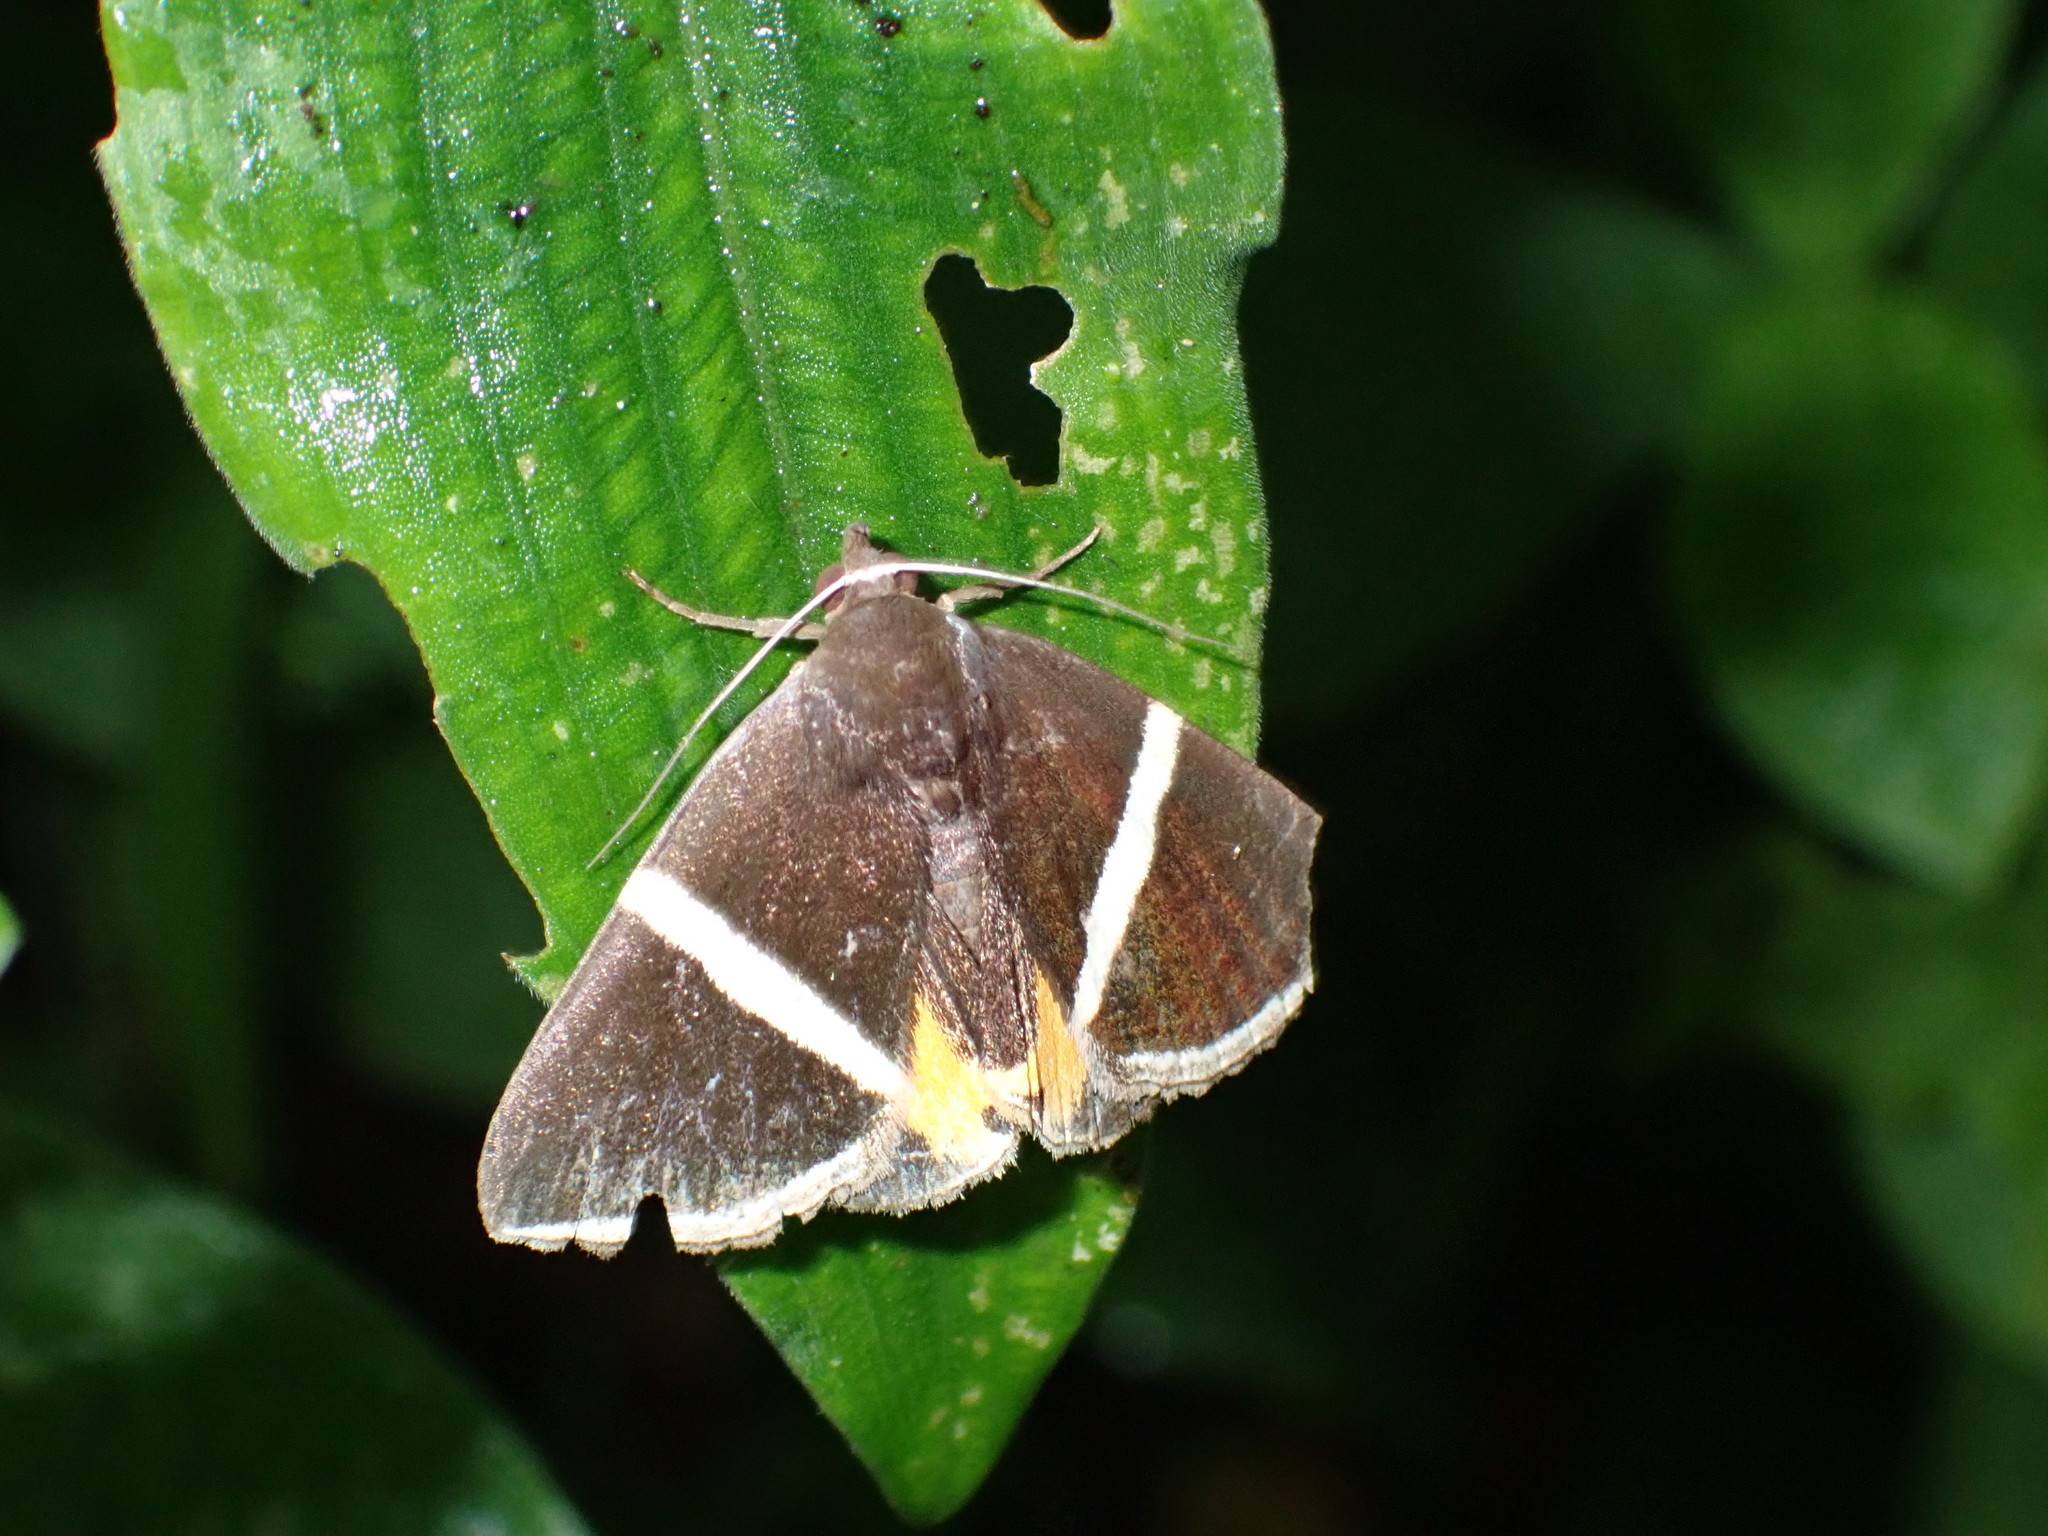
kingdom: Animalia
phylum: Arthropoda
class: Insecta
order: Lepidoptera
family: Erebidae
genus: Fodina
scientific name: Fodina pallula
